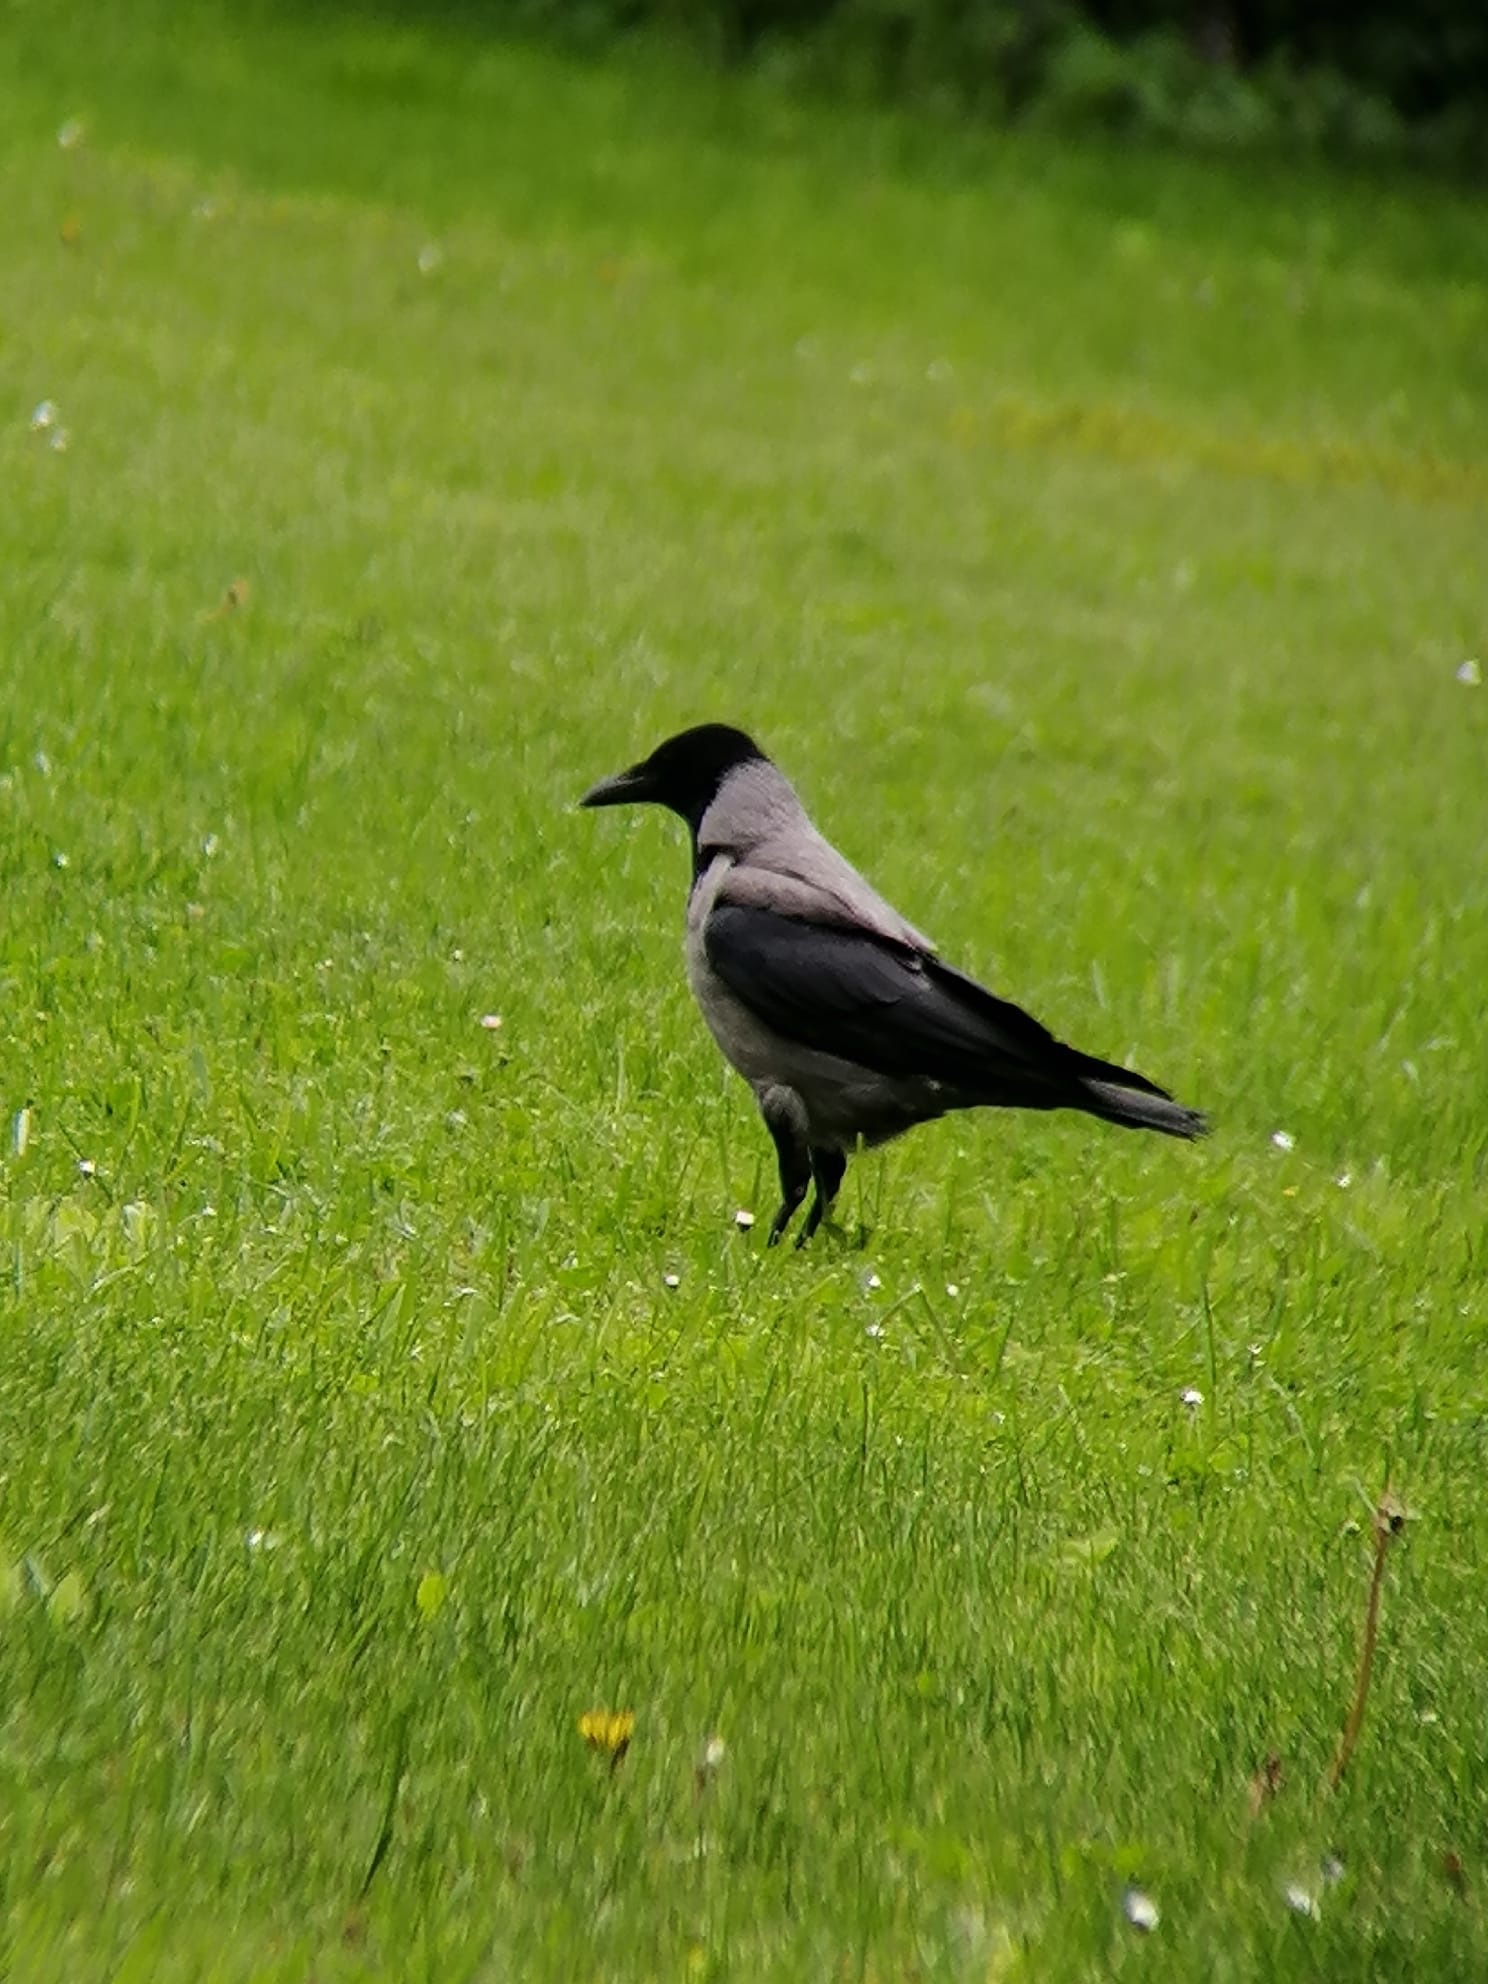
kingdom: Animalia
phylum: Chordata
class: Aves
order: Passeriformes
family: Corvidae
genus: Corvus
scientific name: Corvus cornix
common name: Hooded crow
